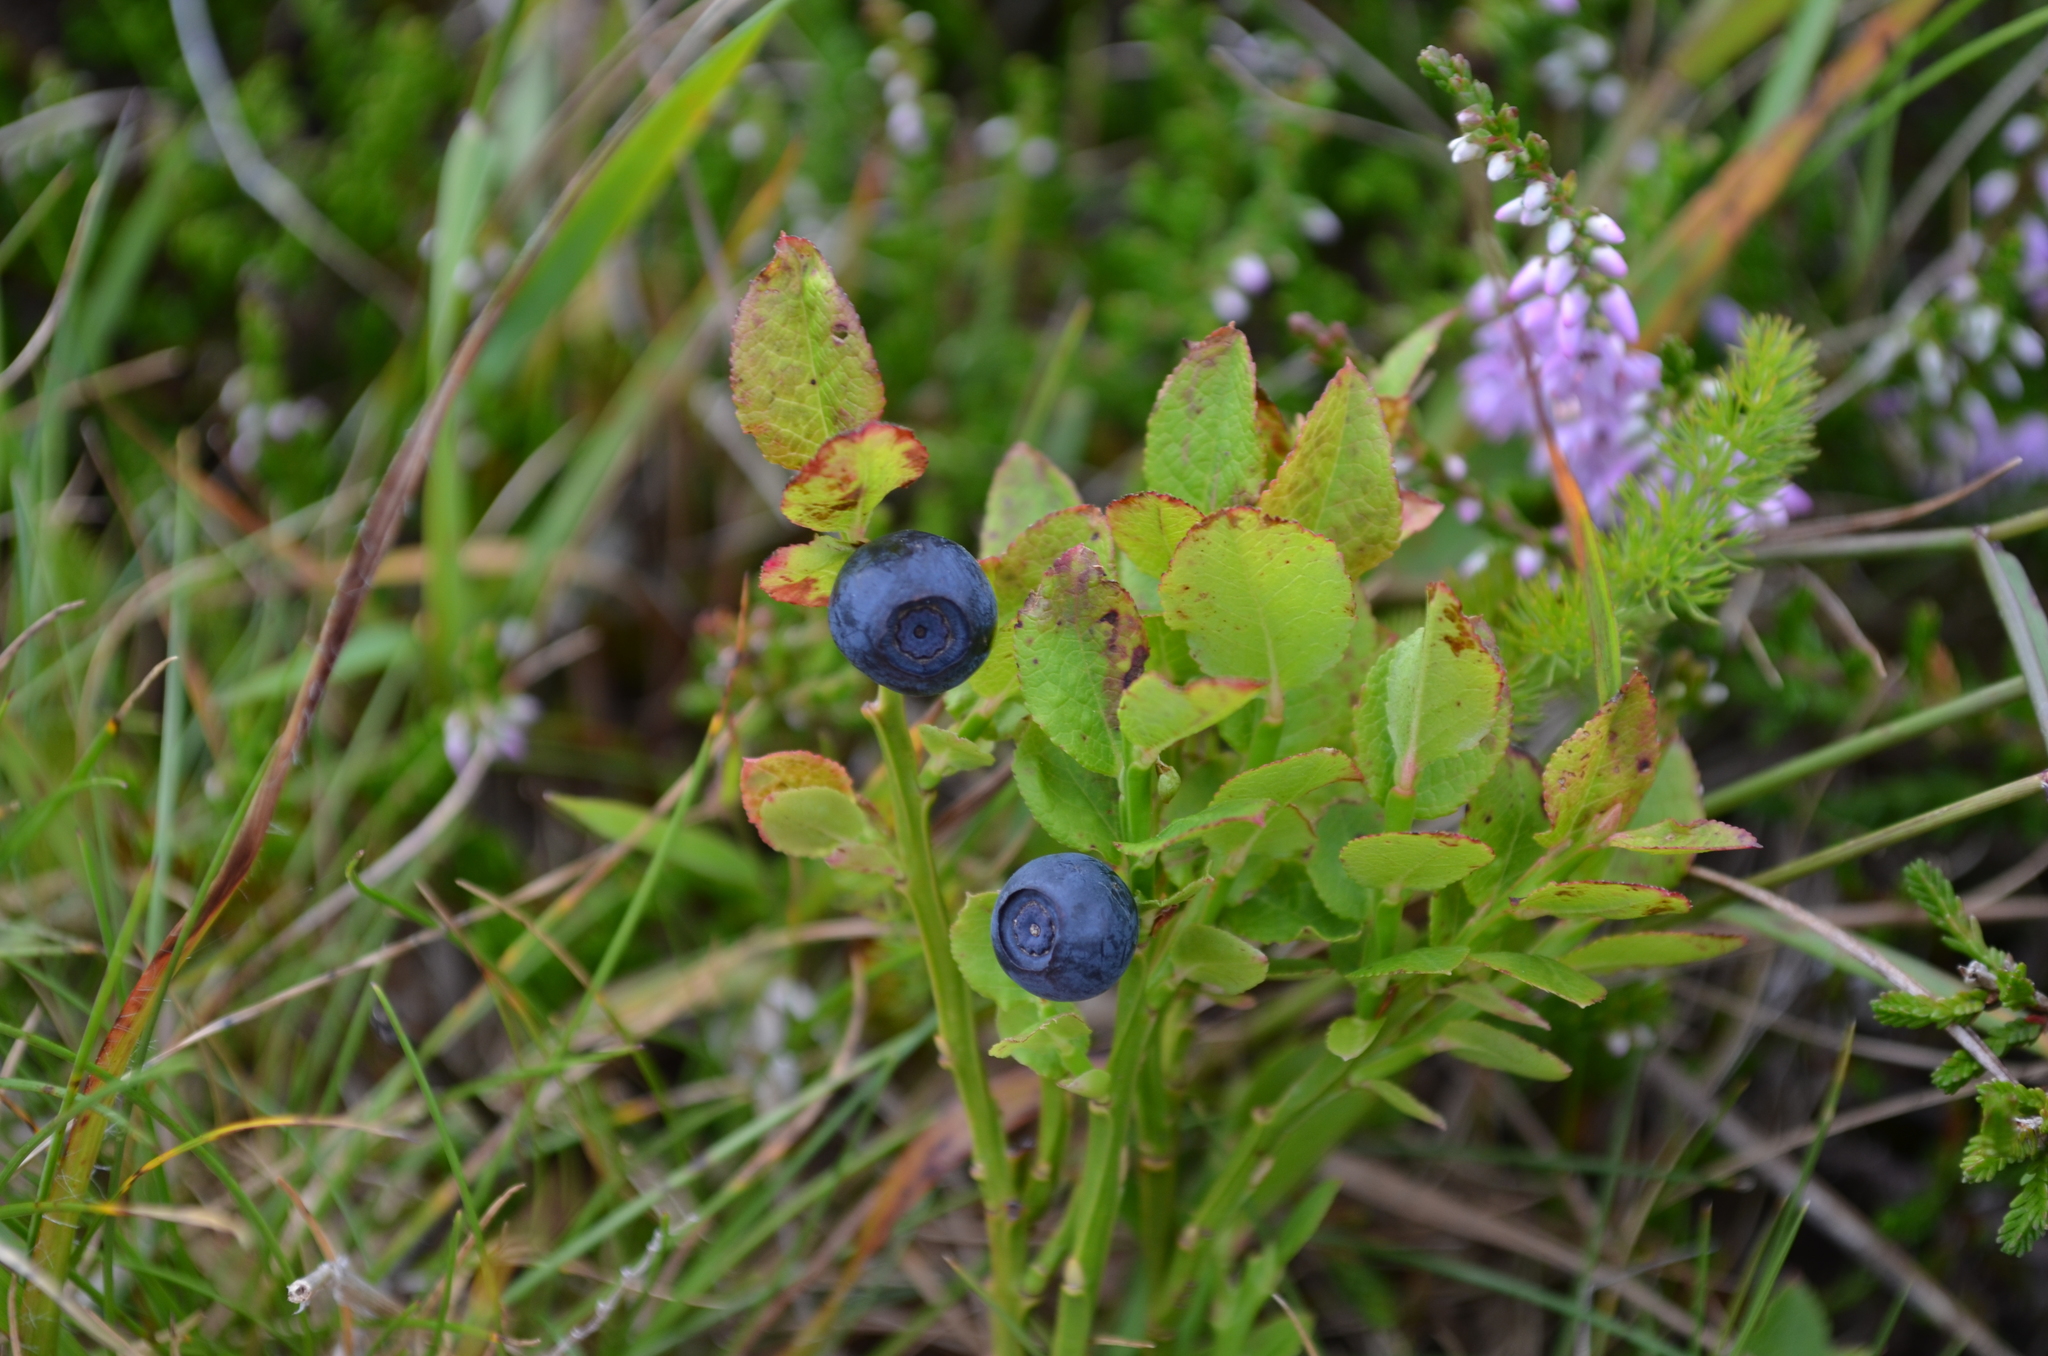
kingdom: Plantae
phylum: Tracheophyta
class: Magnoliopsida
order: Ericales
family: Ericaceae
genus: Vaccinium
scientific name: Vaccinium myrtillus
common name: Bilberry
